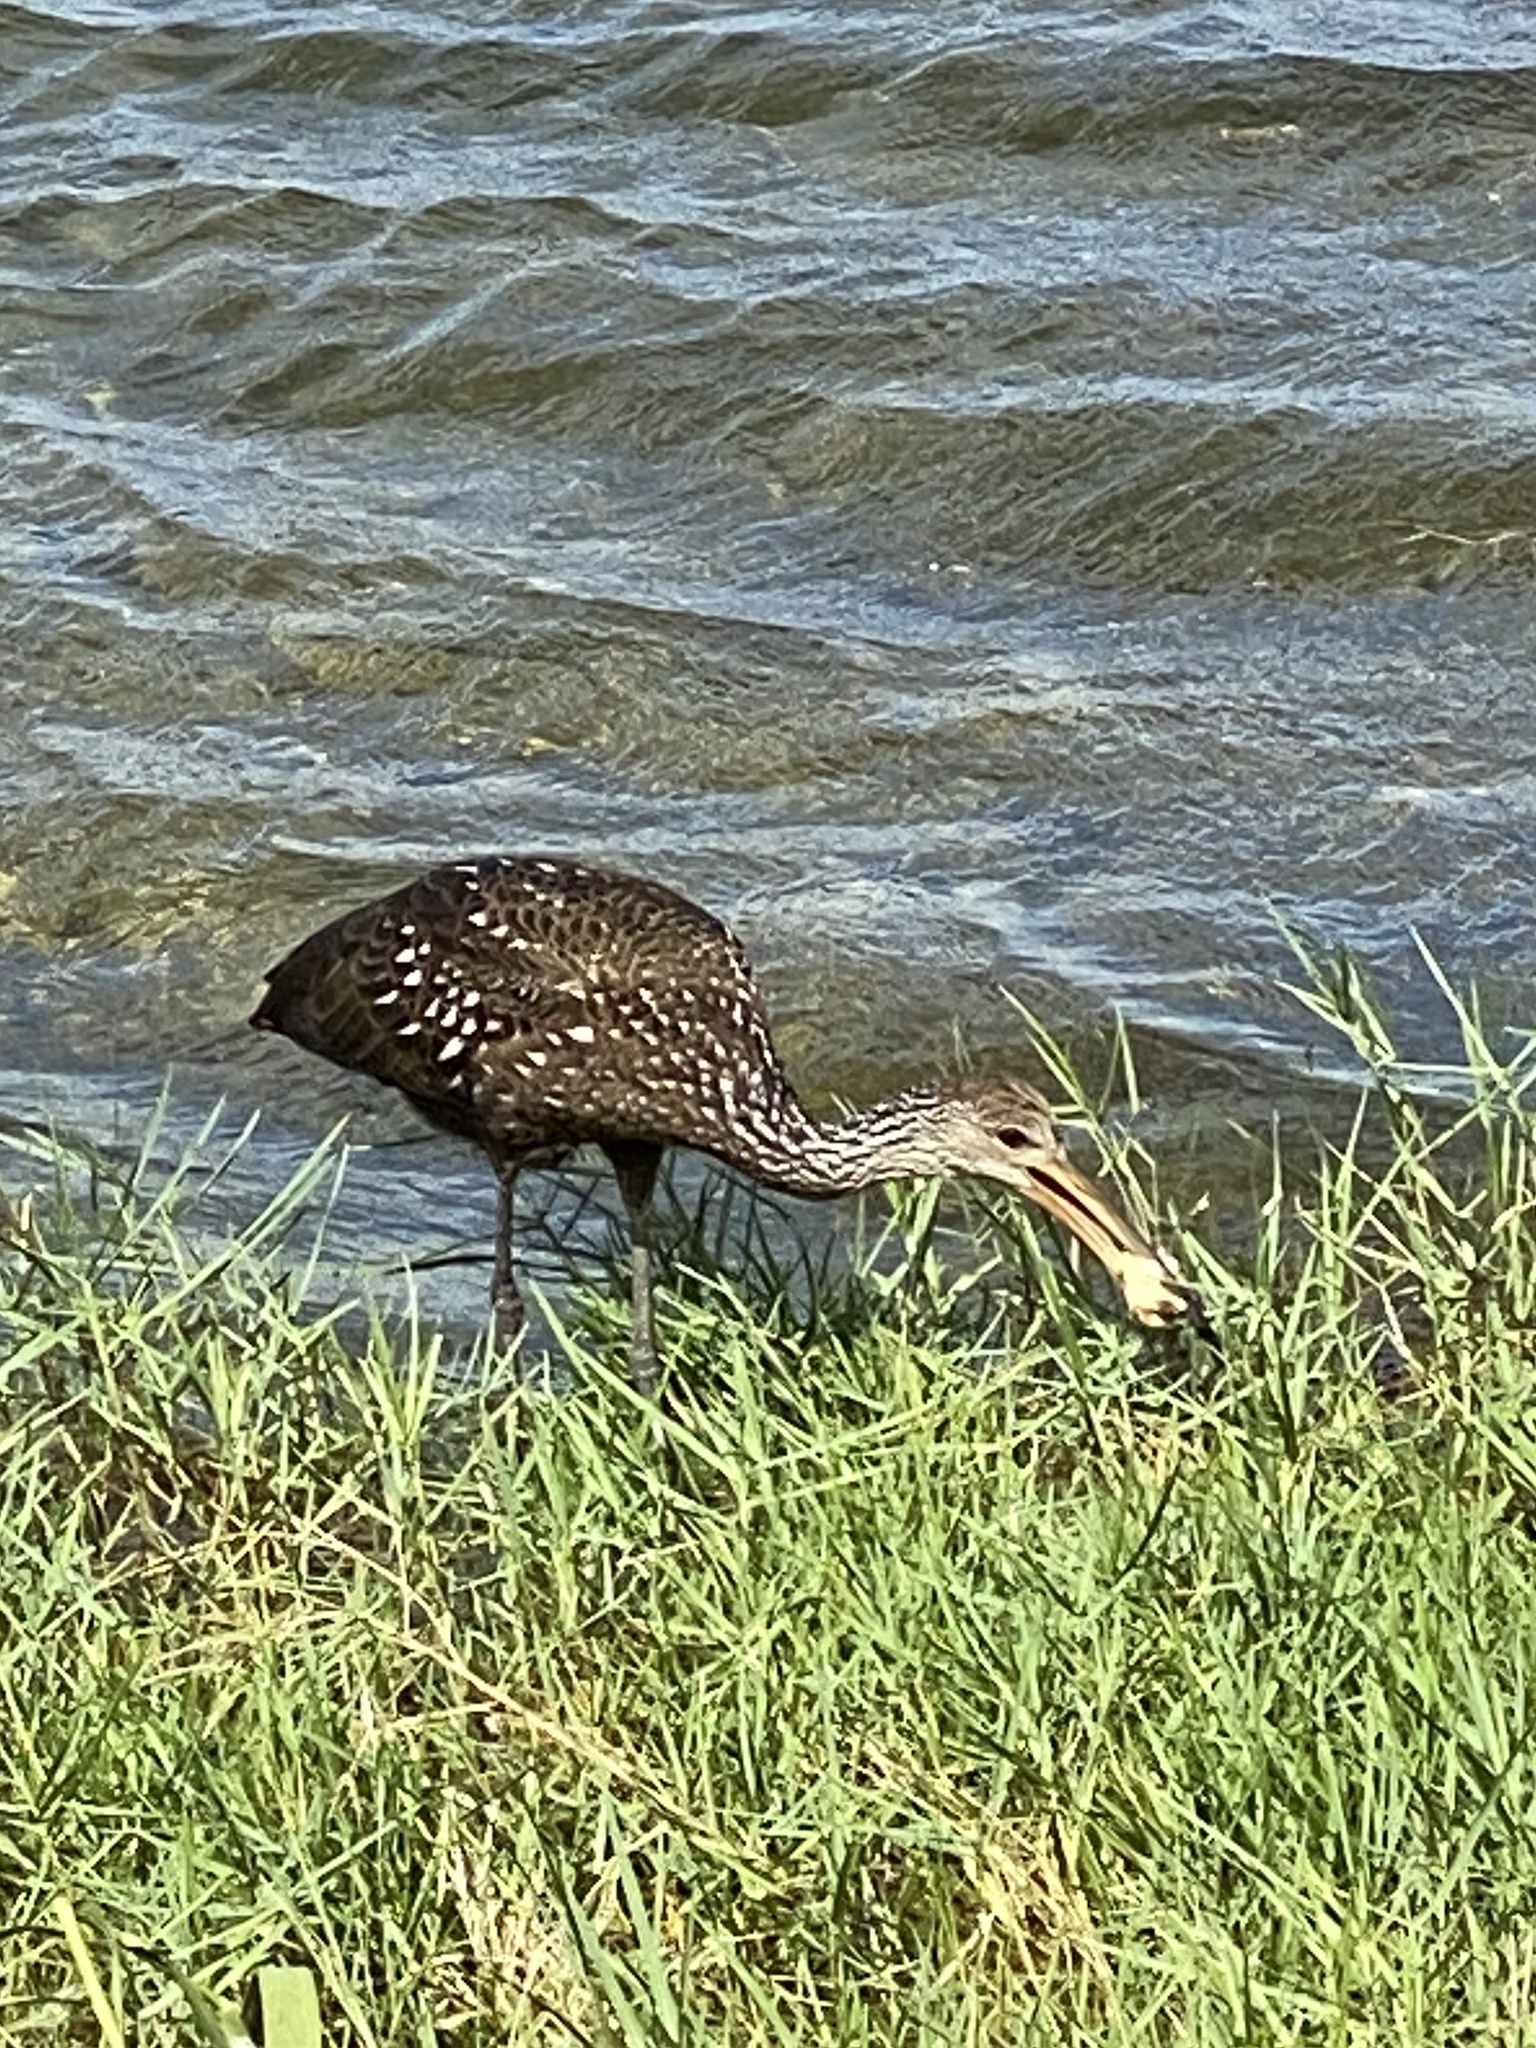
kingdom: Animalia
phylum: Chordata
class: Aves
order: Gruiformes
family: Aramidae
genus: Aramus
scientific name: Aramus guarauna
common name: Limpkin
